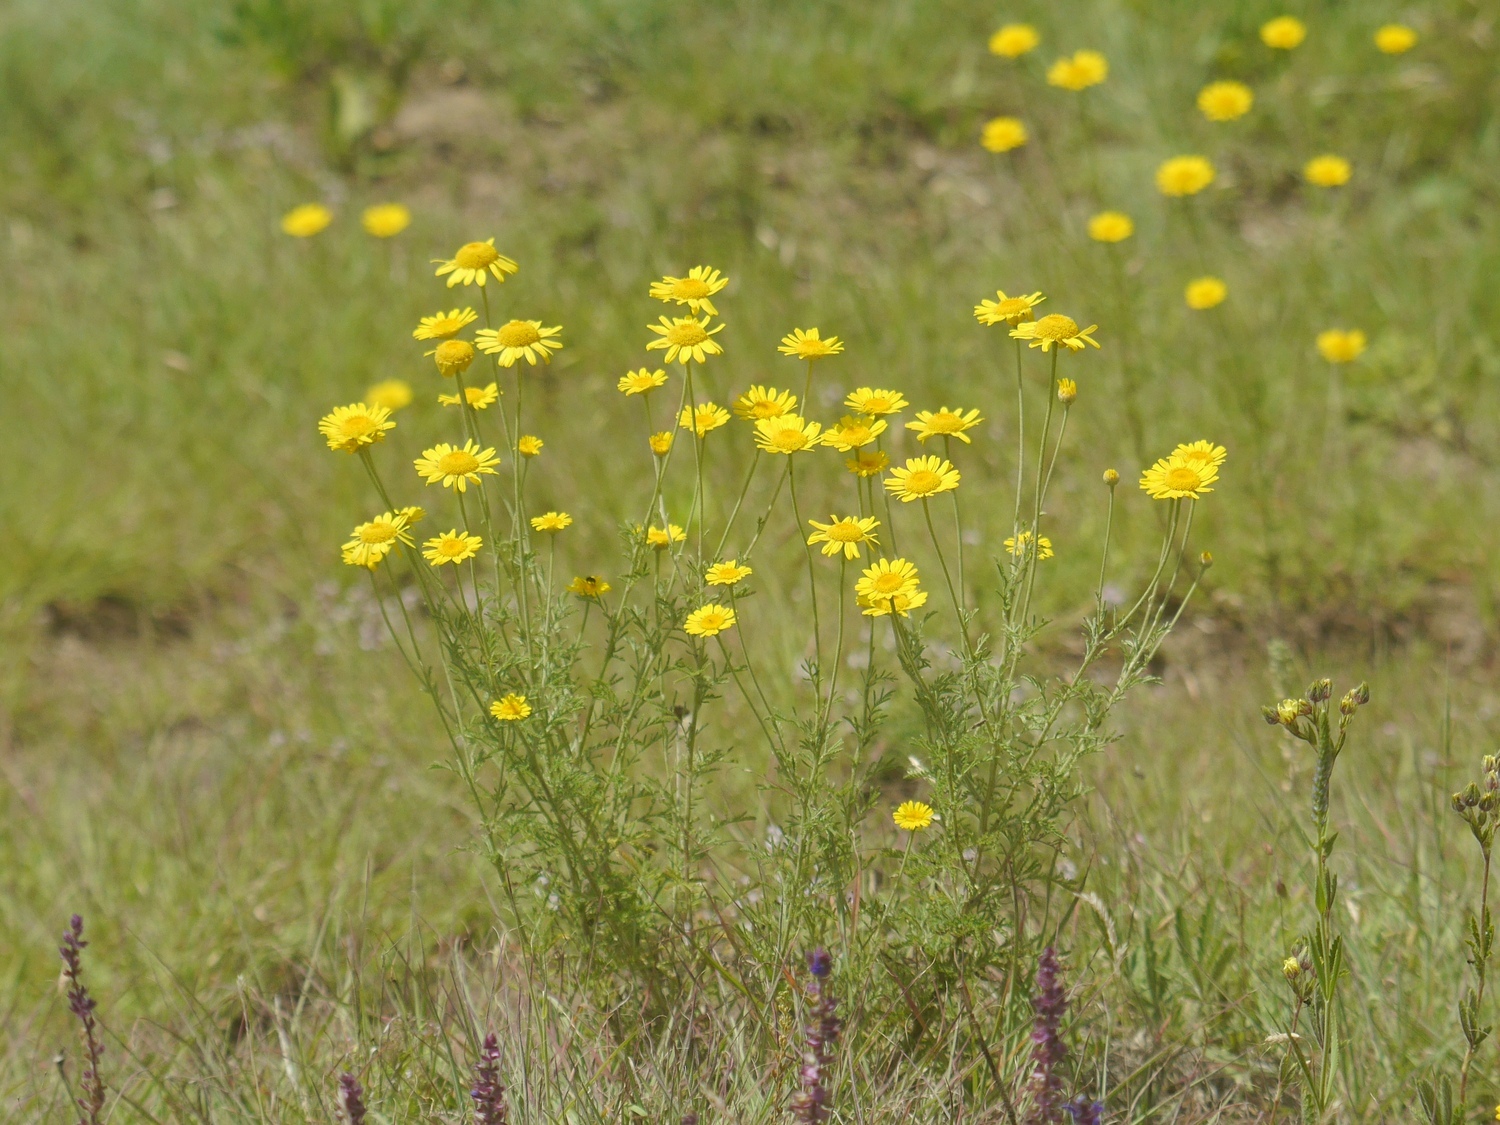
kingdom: Plantae
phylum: Tracheophyta
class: Magnoliopsida
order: Asterales
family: Asteraceae
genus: Cota
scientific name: Cota tinctoria
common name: Golden chamomile
